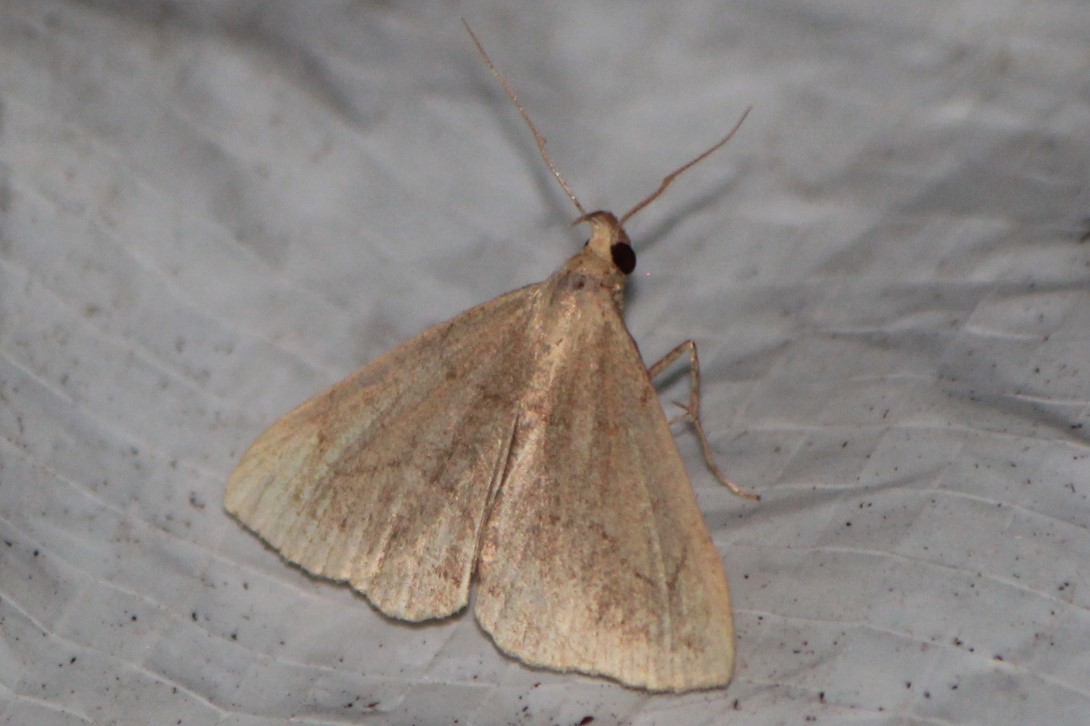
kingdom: Animalia
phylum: Arthropoda
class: Insecta
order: Lepidoptera
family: Erebidae
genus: Macrochilo
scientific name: Macrochilo litophora
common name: Brown-lined owlet
